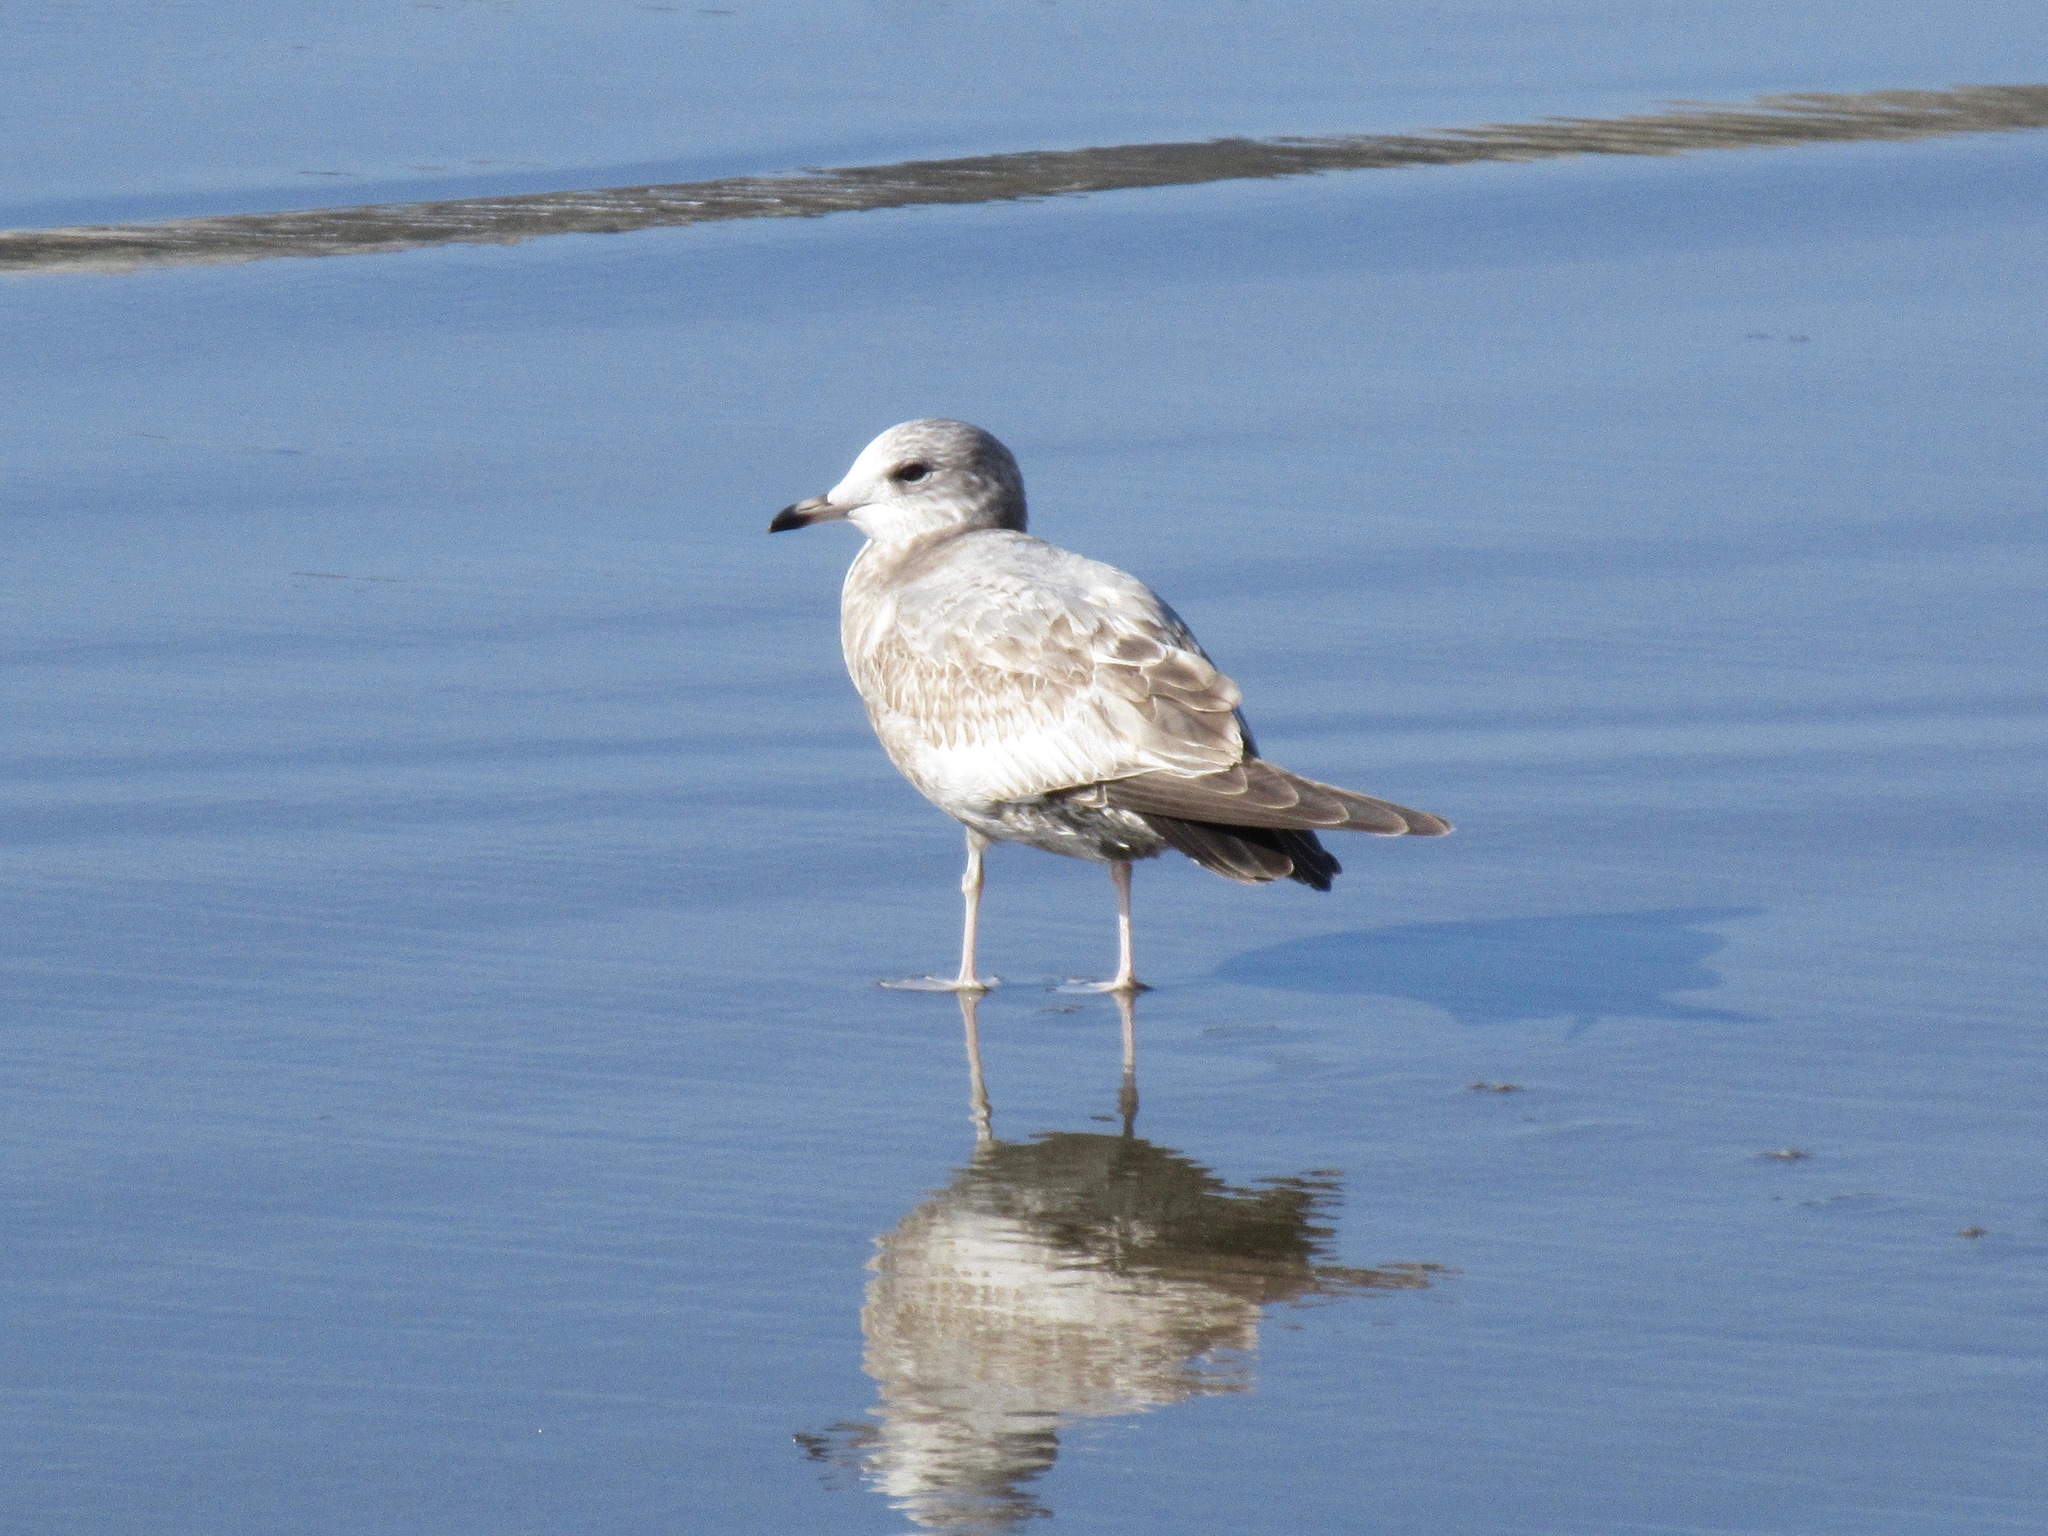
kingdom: Animalia
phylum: Chordata
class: Aves
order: Charadriiformes
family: Laridae
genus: Larus
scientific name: Larus brachyrhynchus
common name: Short-billed gull
